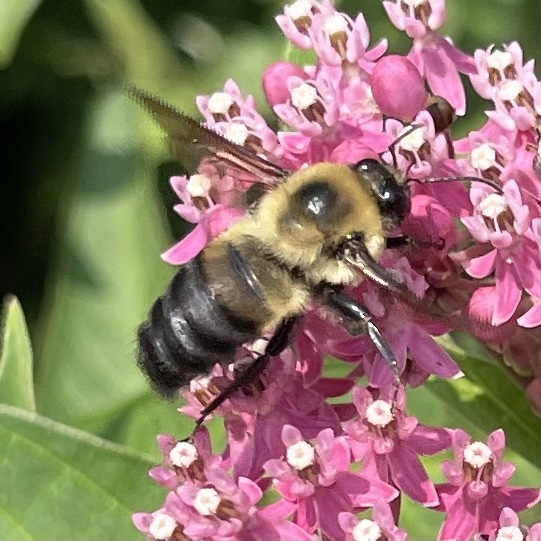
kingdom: Animalia
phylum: Arthropoda
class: Insecta
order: Hymenoptera
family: Apidae
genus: Bombus
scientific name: Bombus griseocollis
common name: Brown-belted bumble bee
